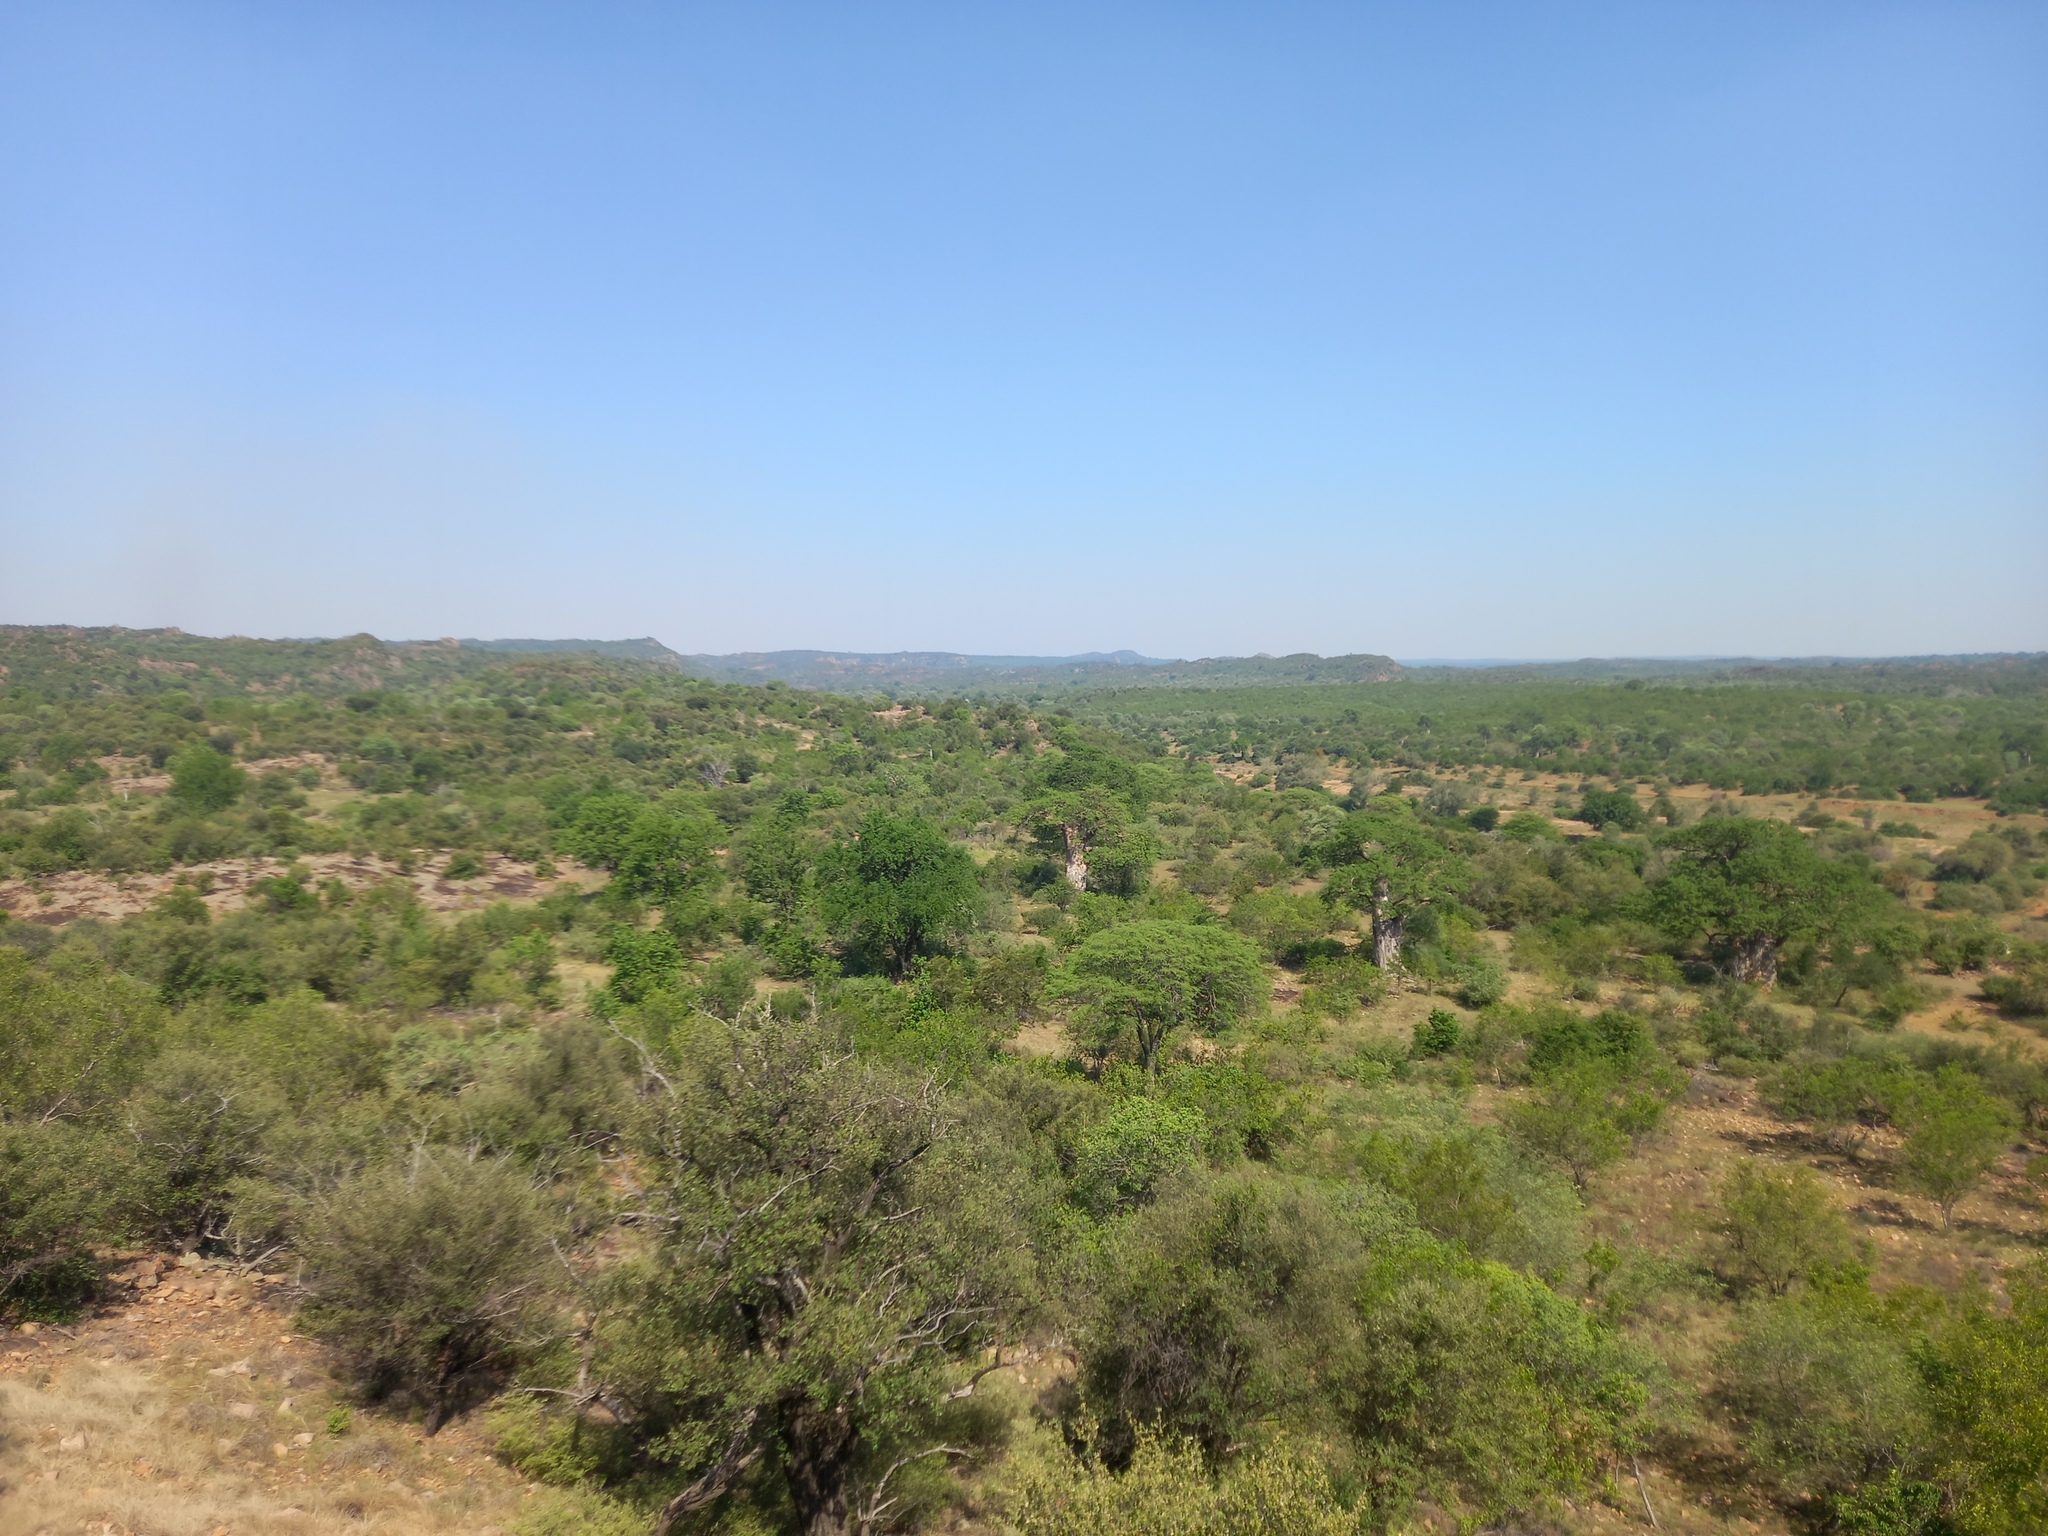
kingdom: Plantae
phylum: Tracheophyta
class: Magnoliopsida
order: Malvales
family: Malvaceae
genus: Adansonia
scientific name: Adansonia digitata
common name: Dead-rat-tree
